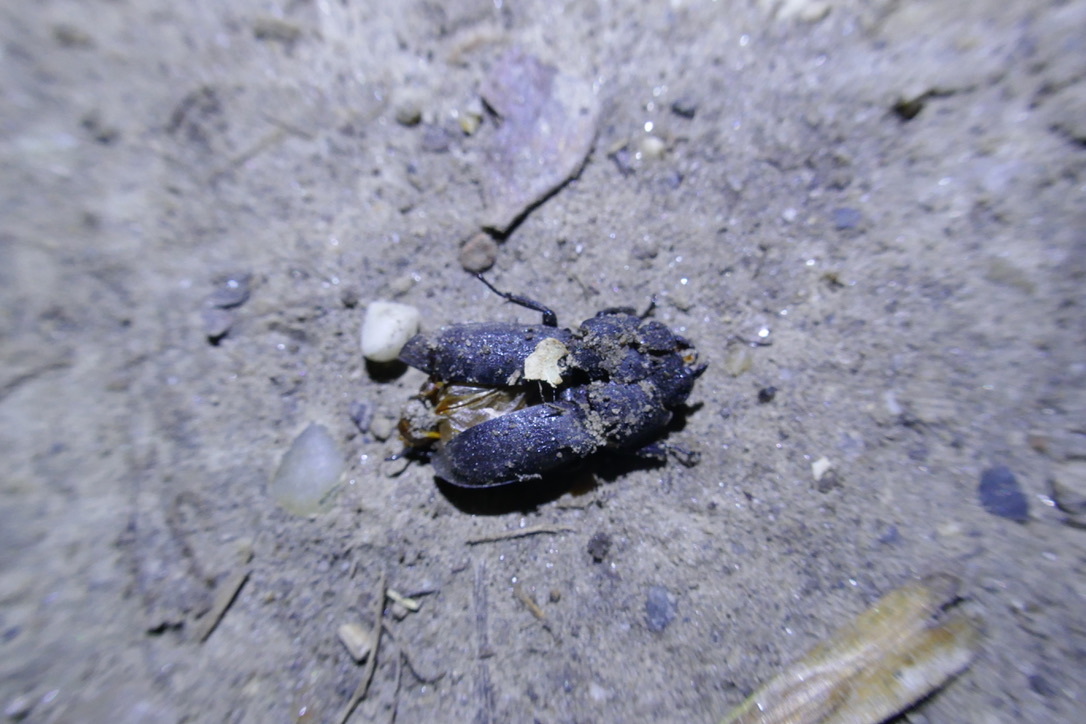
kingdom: Animalia
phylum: Arthropoda
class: Insecta
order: Coleoptera
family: Lucanidae
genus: Dorcus
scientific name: Dorcus parallelipipedus
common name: Lesser stag beetle
